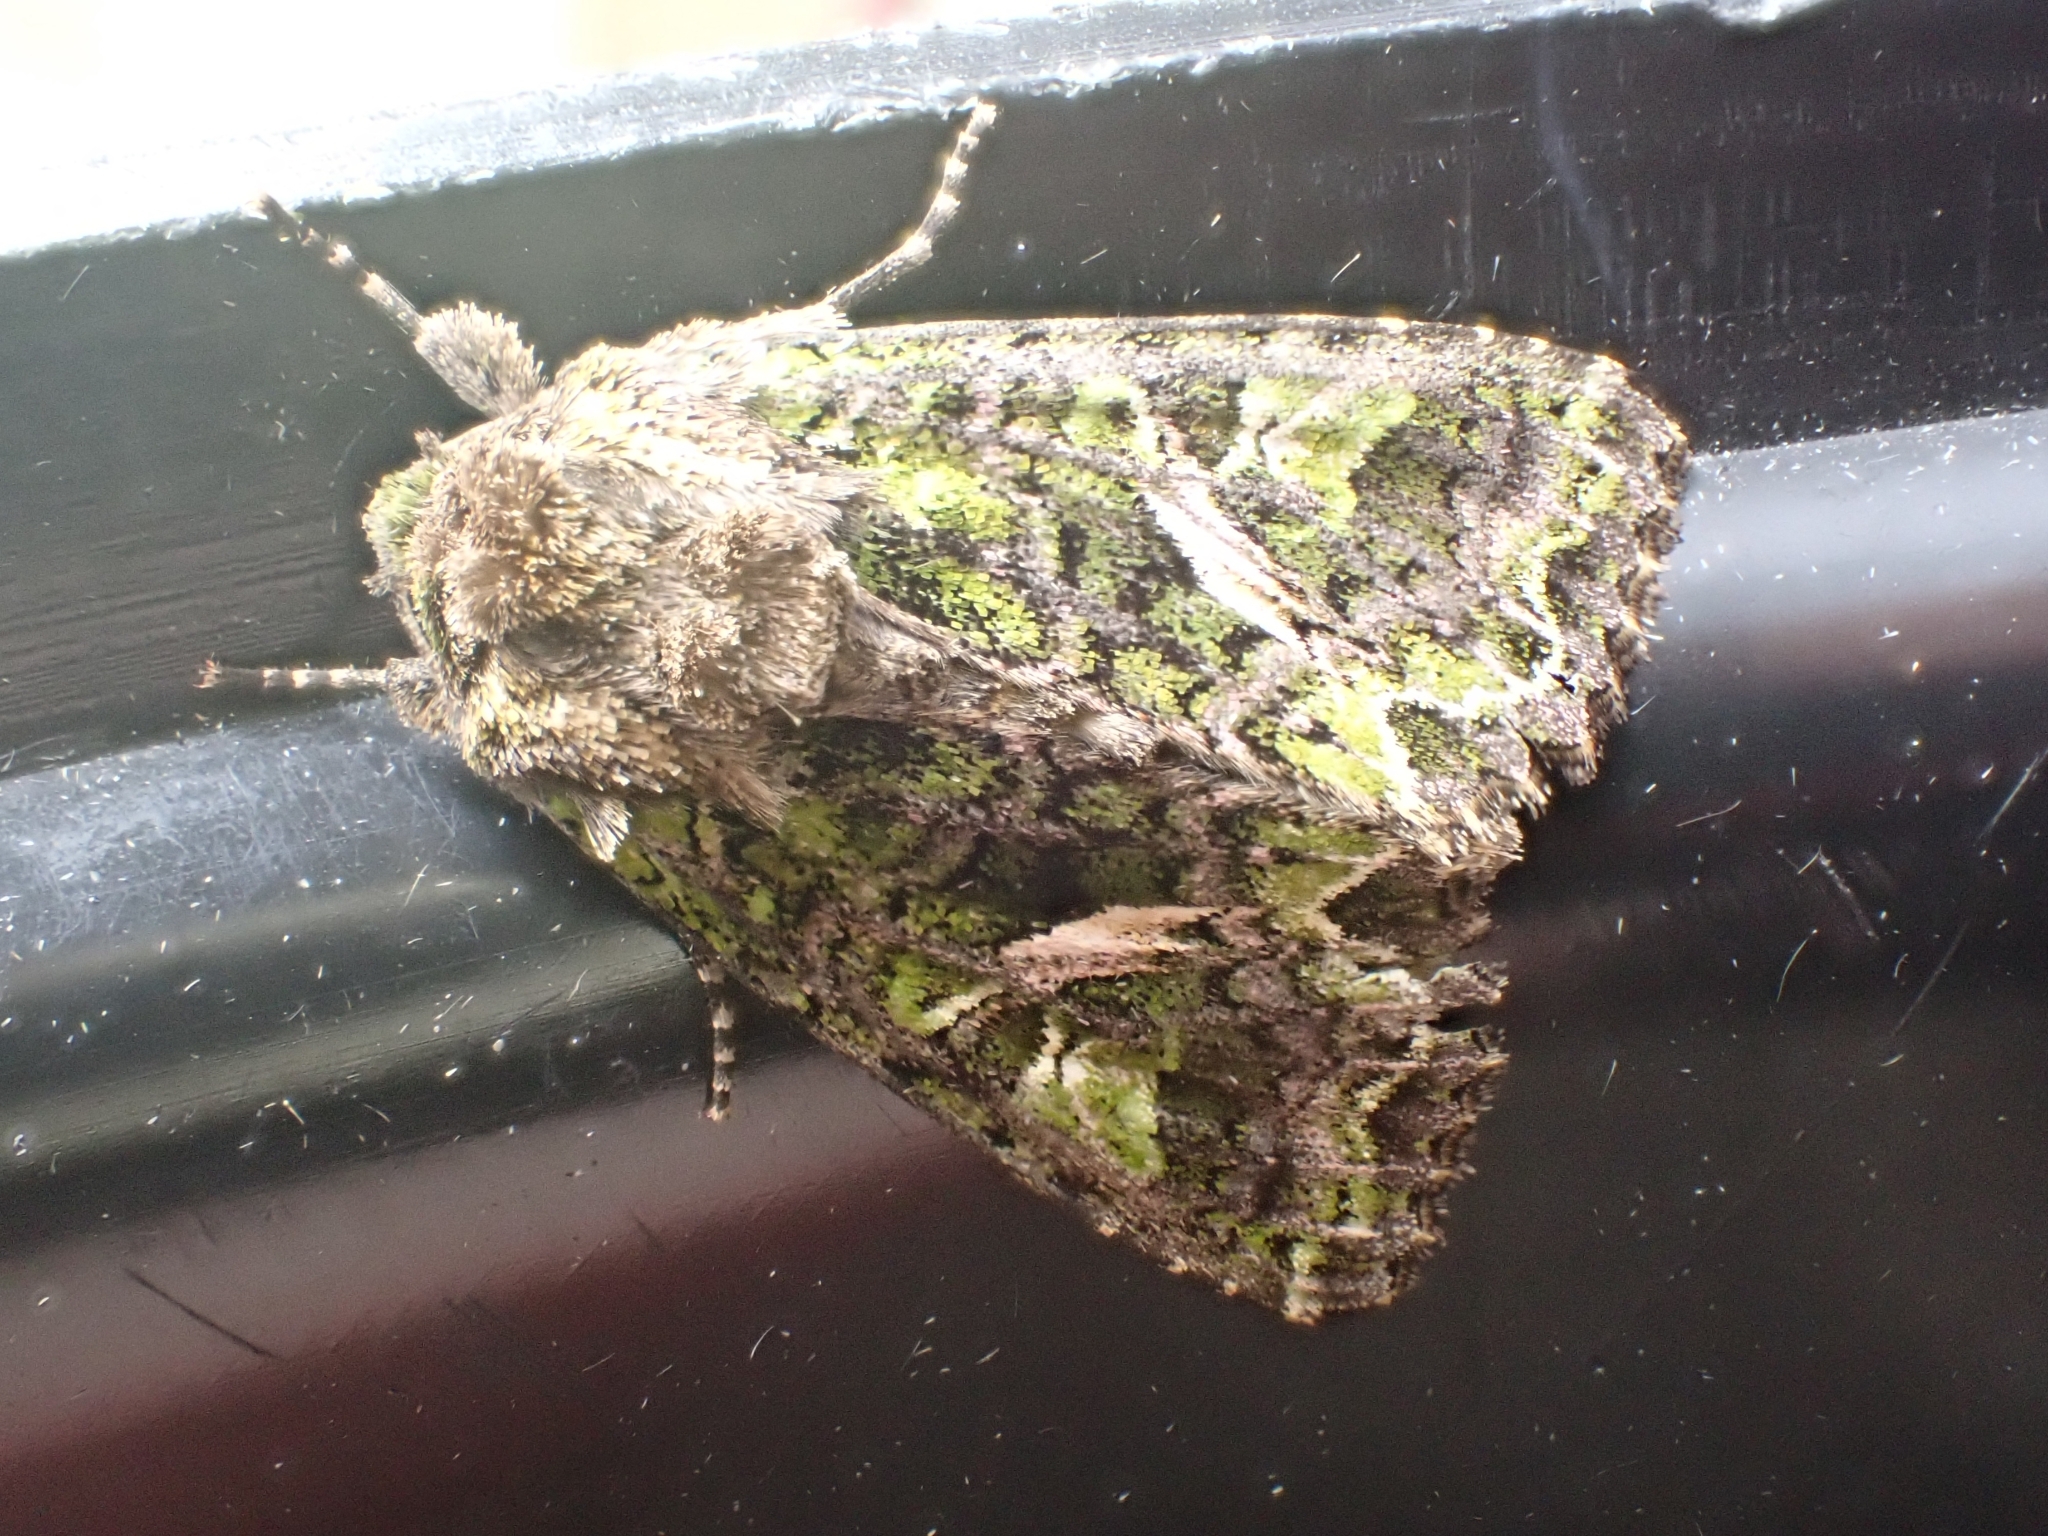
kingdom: Animalia
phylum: Arthropoda
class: Insecta
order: Lepidoptera
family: Noctuidae
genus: Trachea
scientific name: Trachea atriplicis
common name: Orache moth
